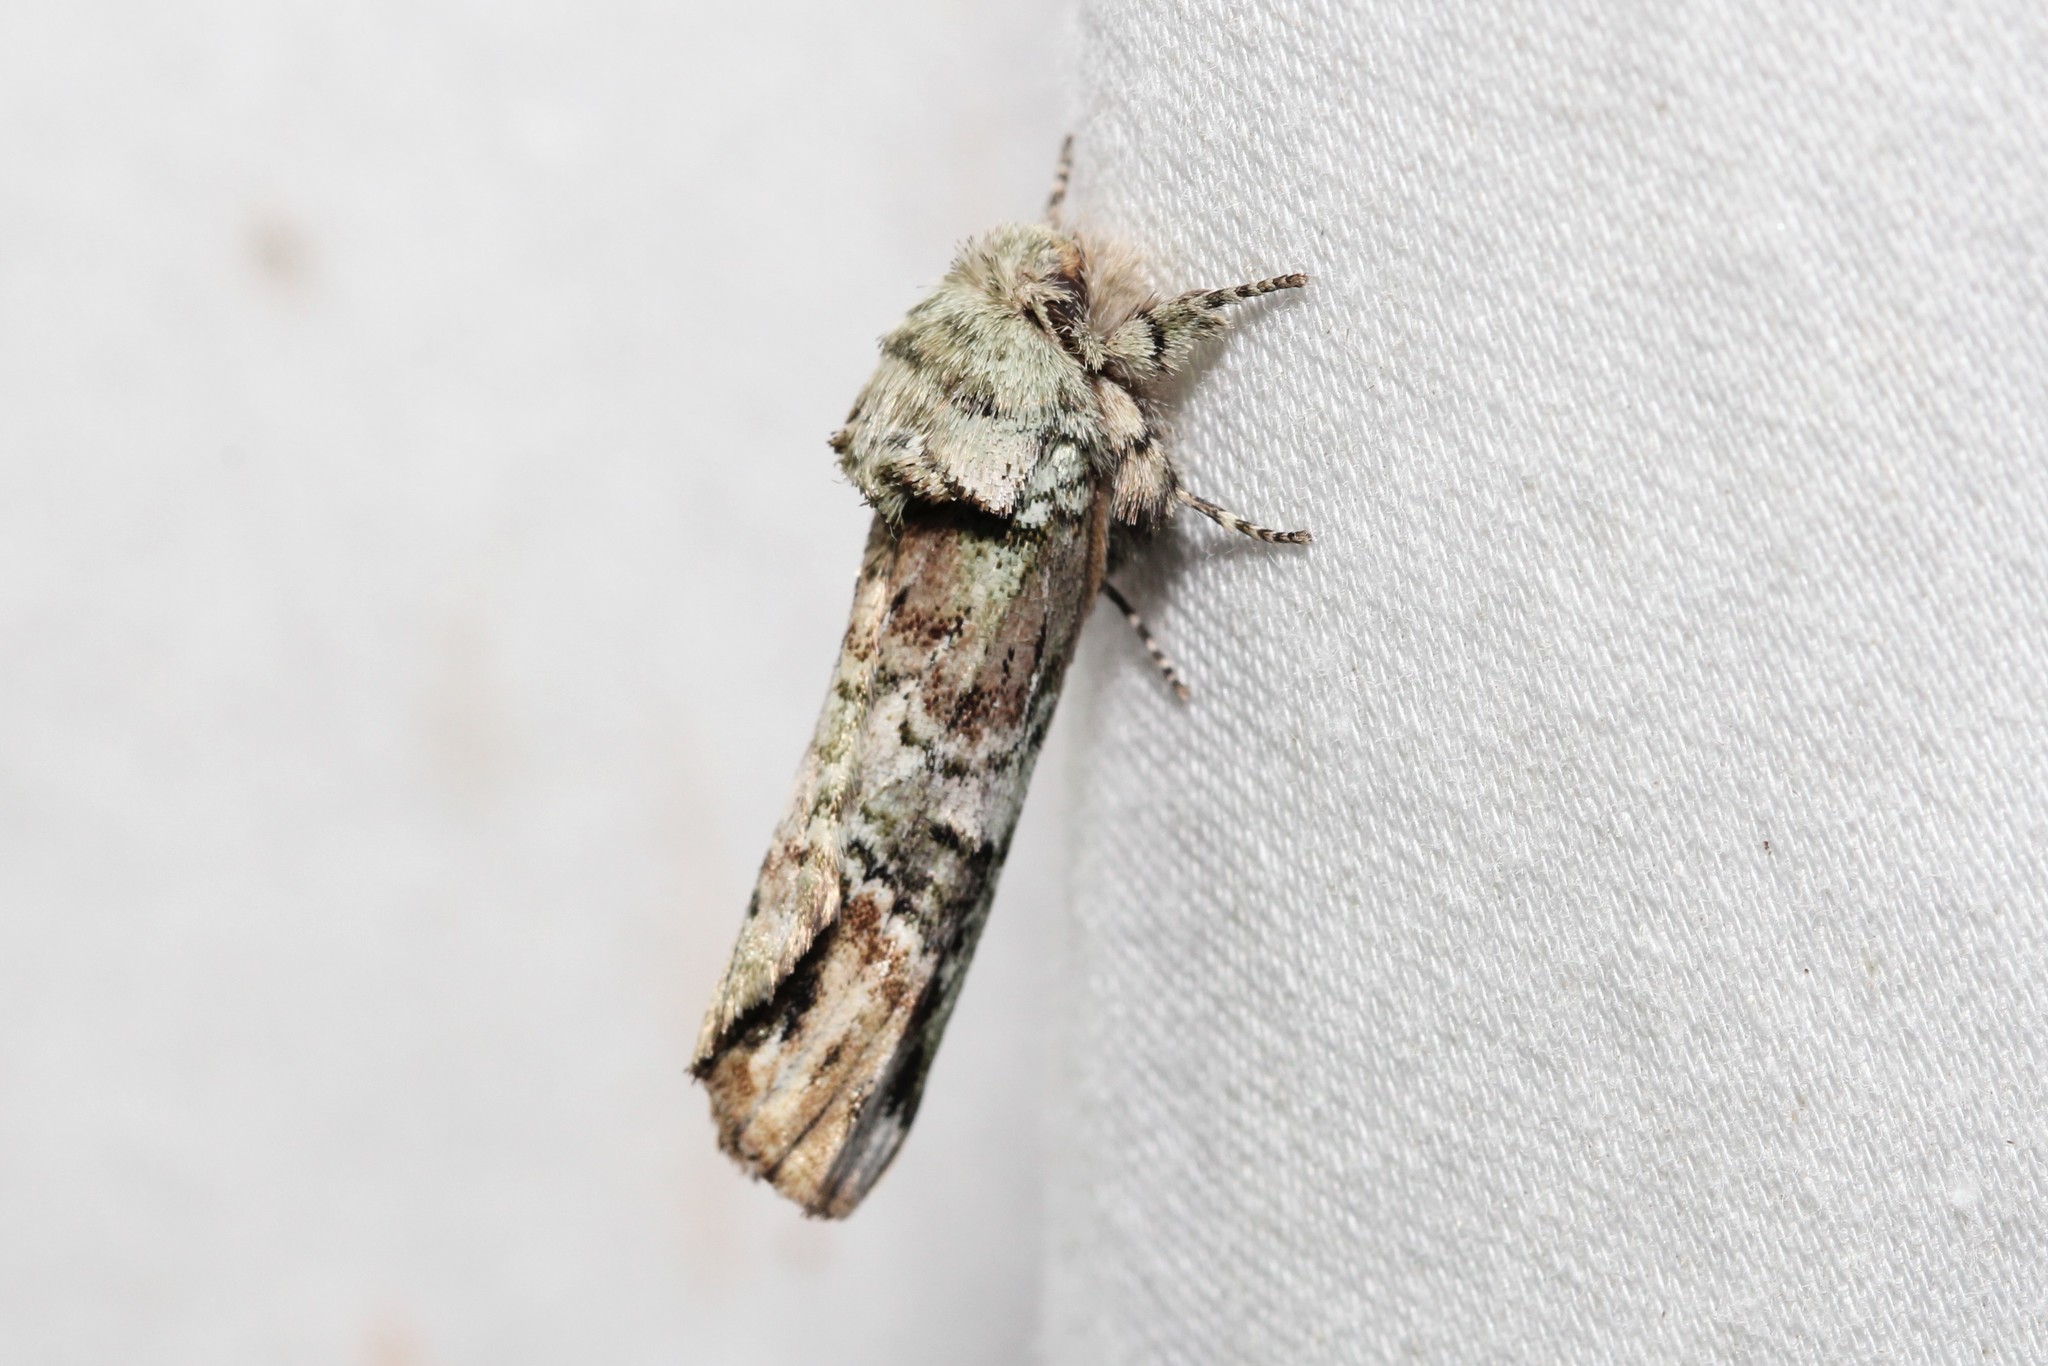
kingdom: Animalia
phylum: Arthropoda
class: Insecta
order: Lepidoptera
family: Notodontidae
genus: Schizura
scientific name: Schizura
